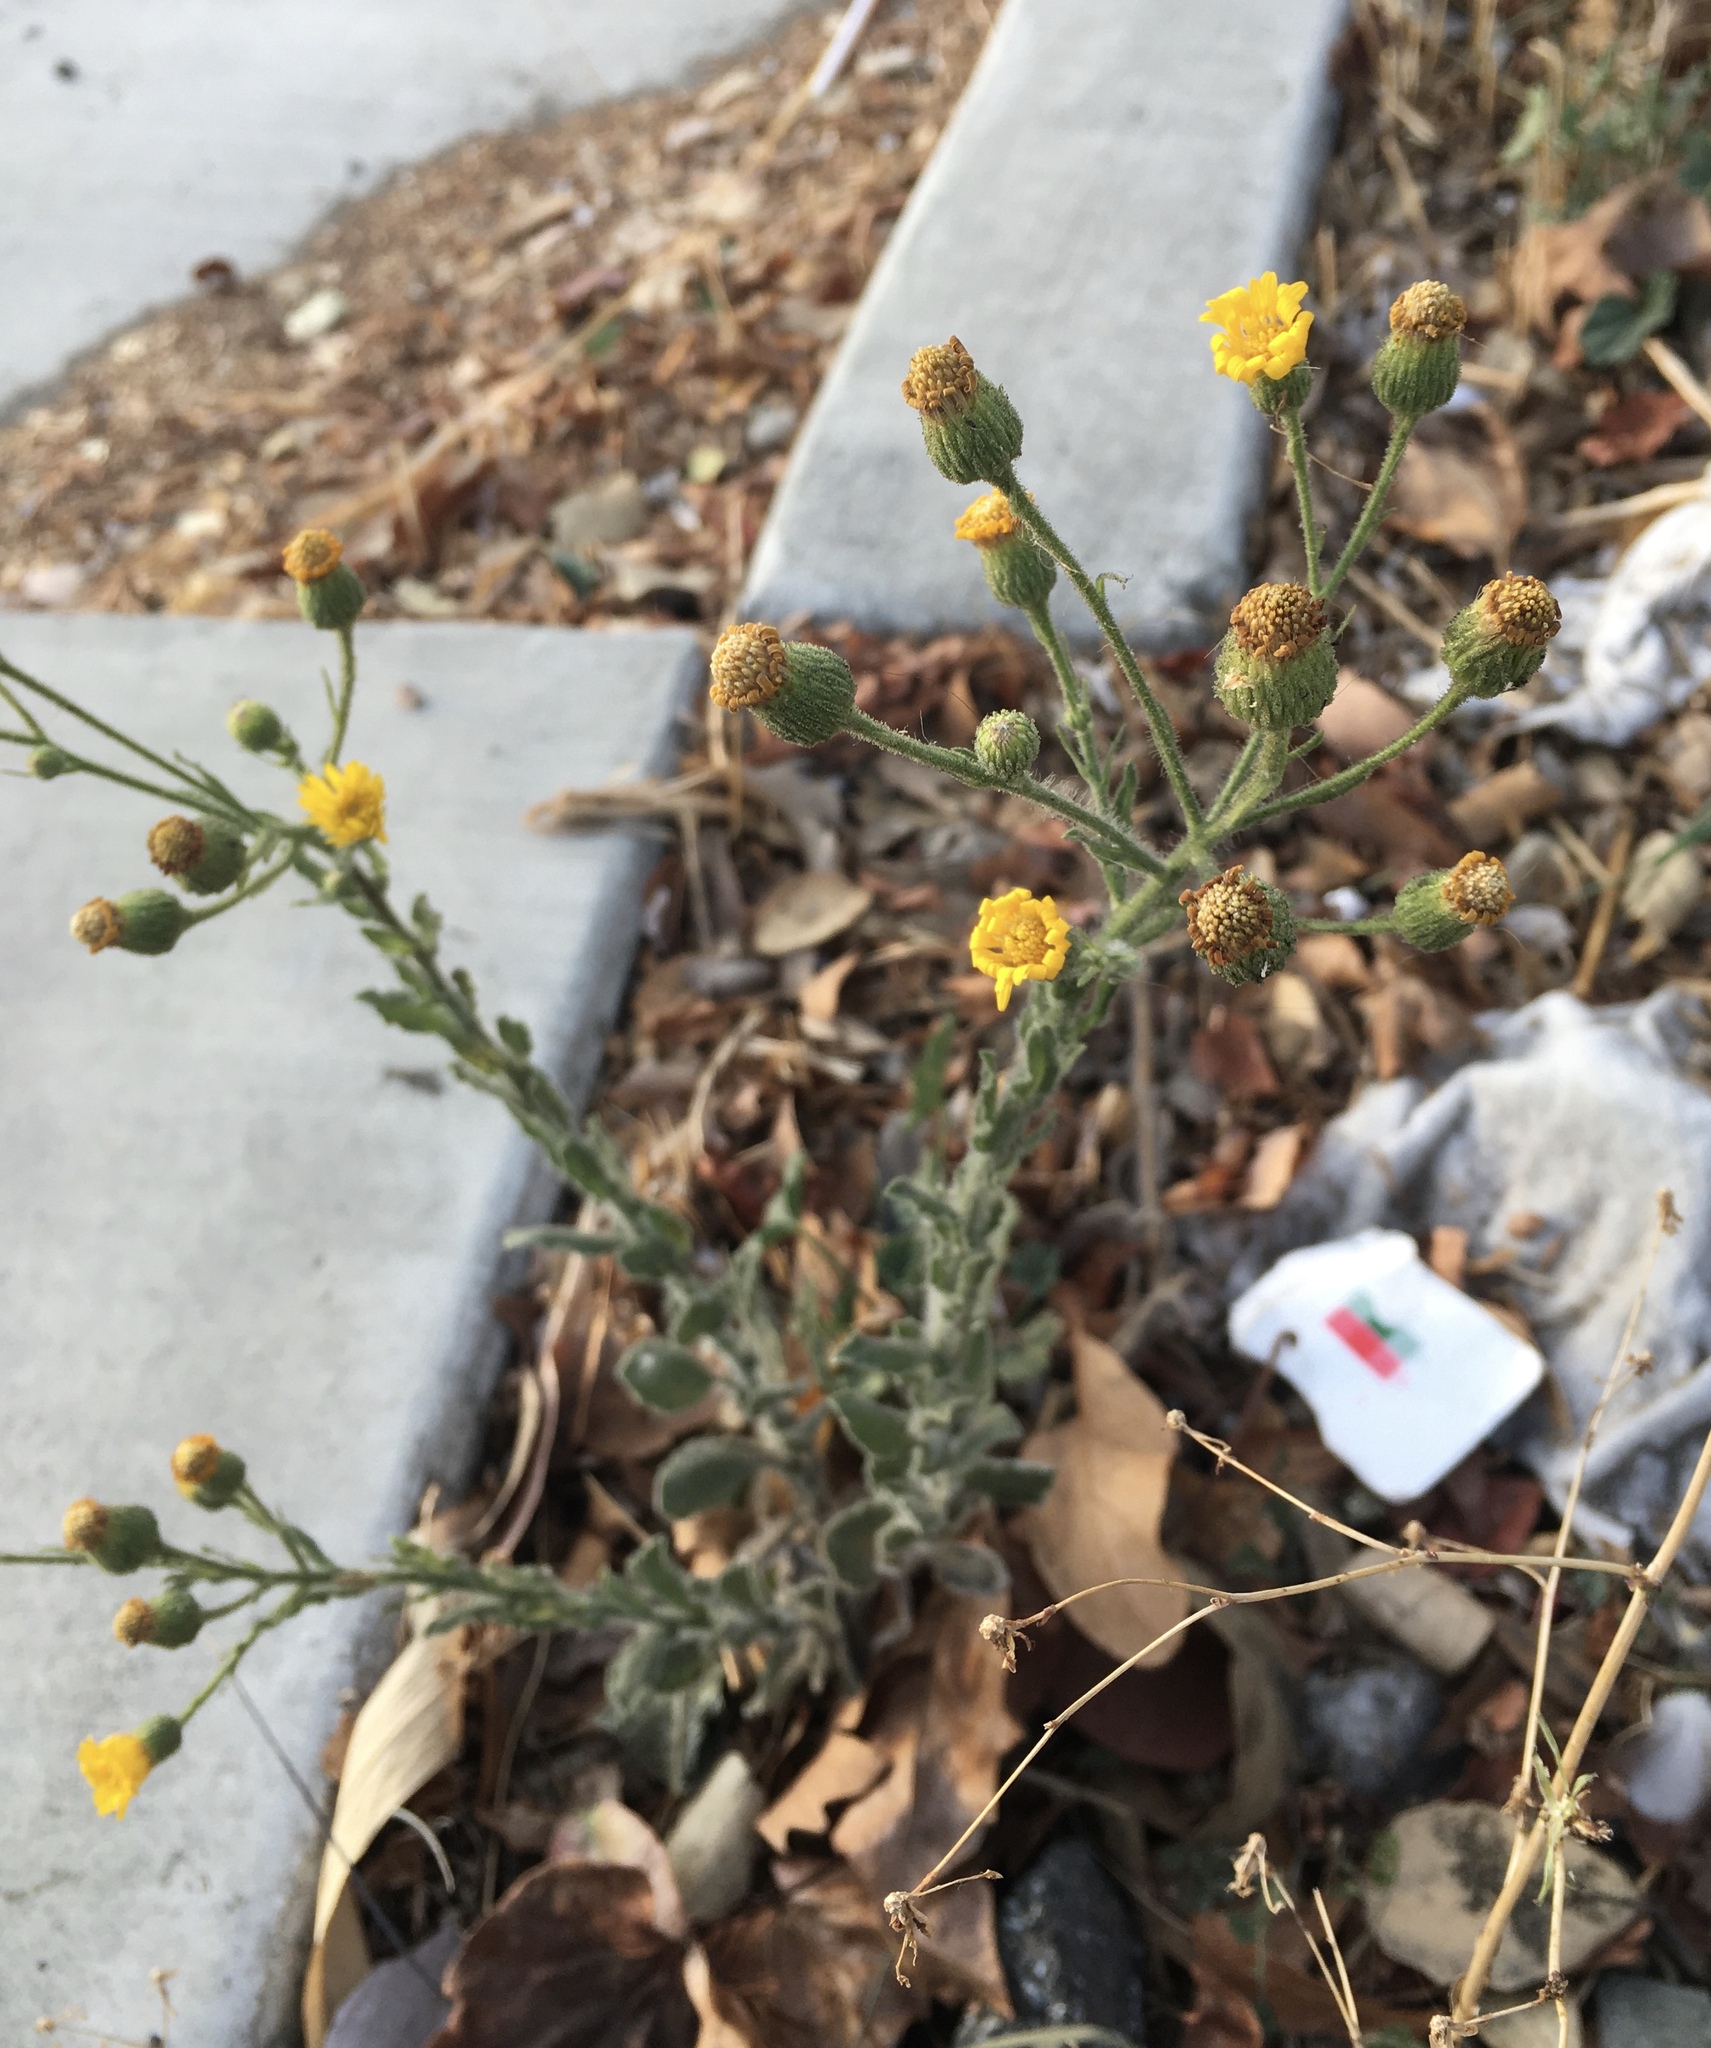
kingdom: Plantae
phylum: Tracheophyta
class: Magnoliopsida
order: Asterales
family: Asteraceae
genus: Heterotheca
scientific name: Heterotheca grandiflora
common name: Telegraphweed
